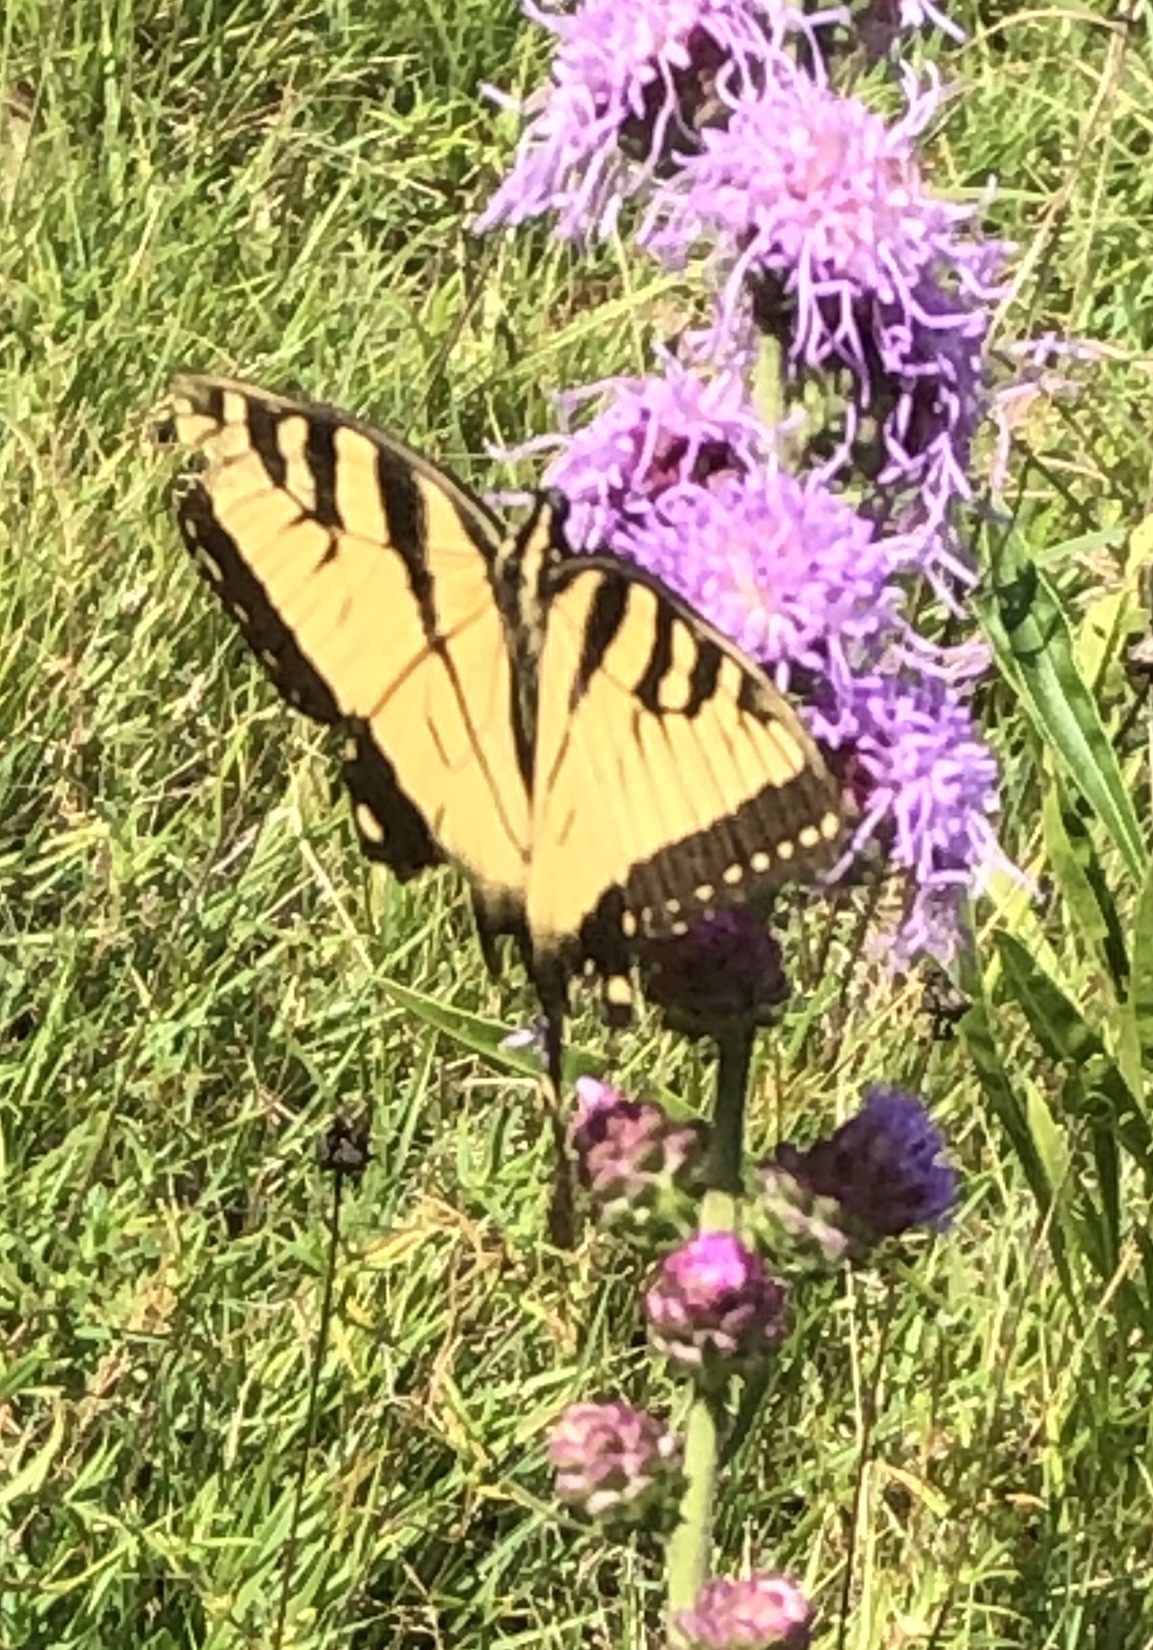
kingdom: Animalia
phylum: Arthropoda
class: Insecta
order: Lepidoptera
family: Papilionidae
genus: Papilio
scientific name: Papilio glaucus
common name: Tiger swallowtail
